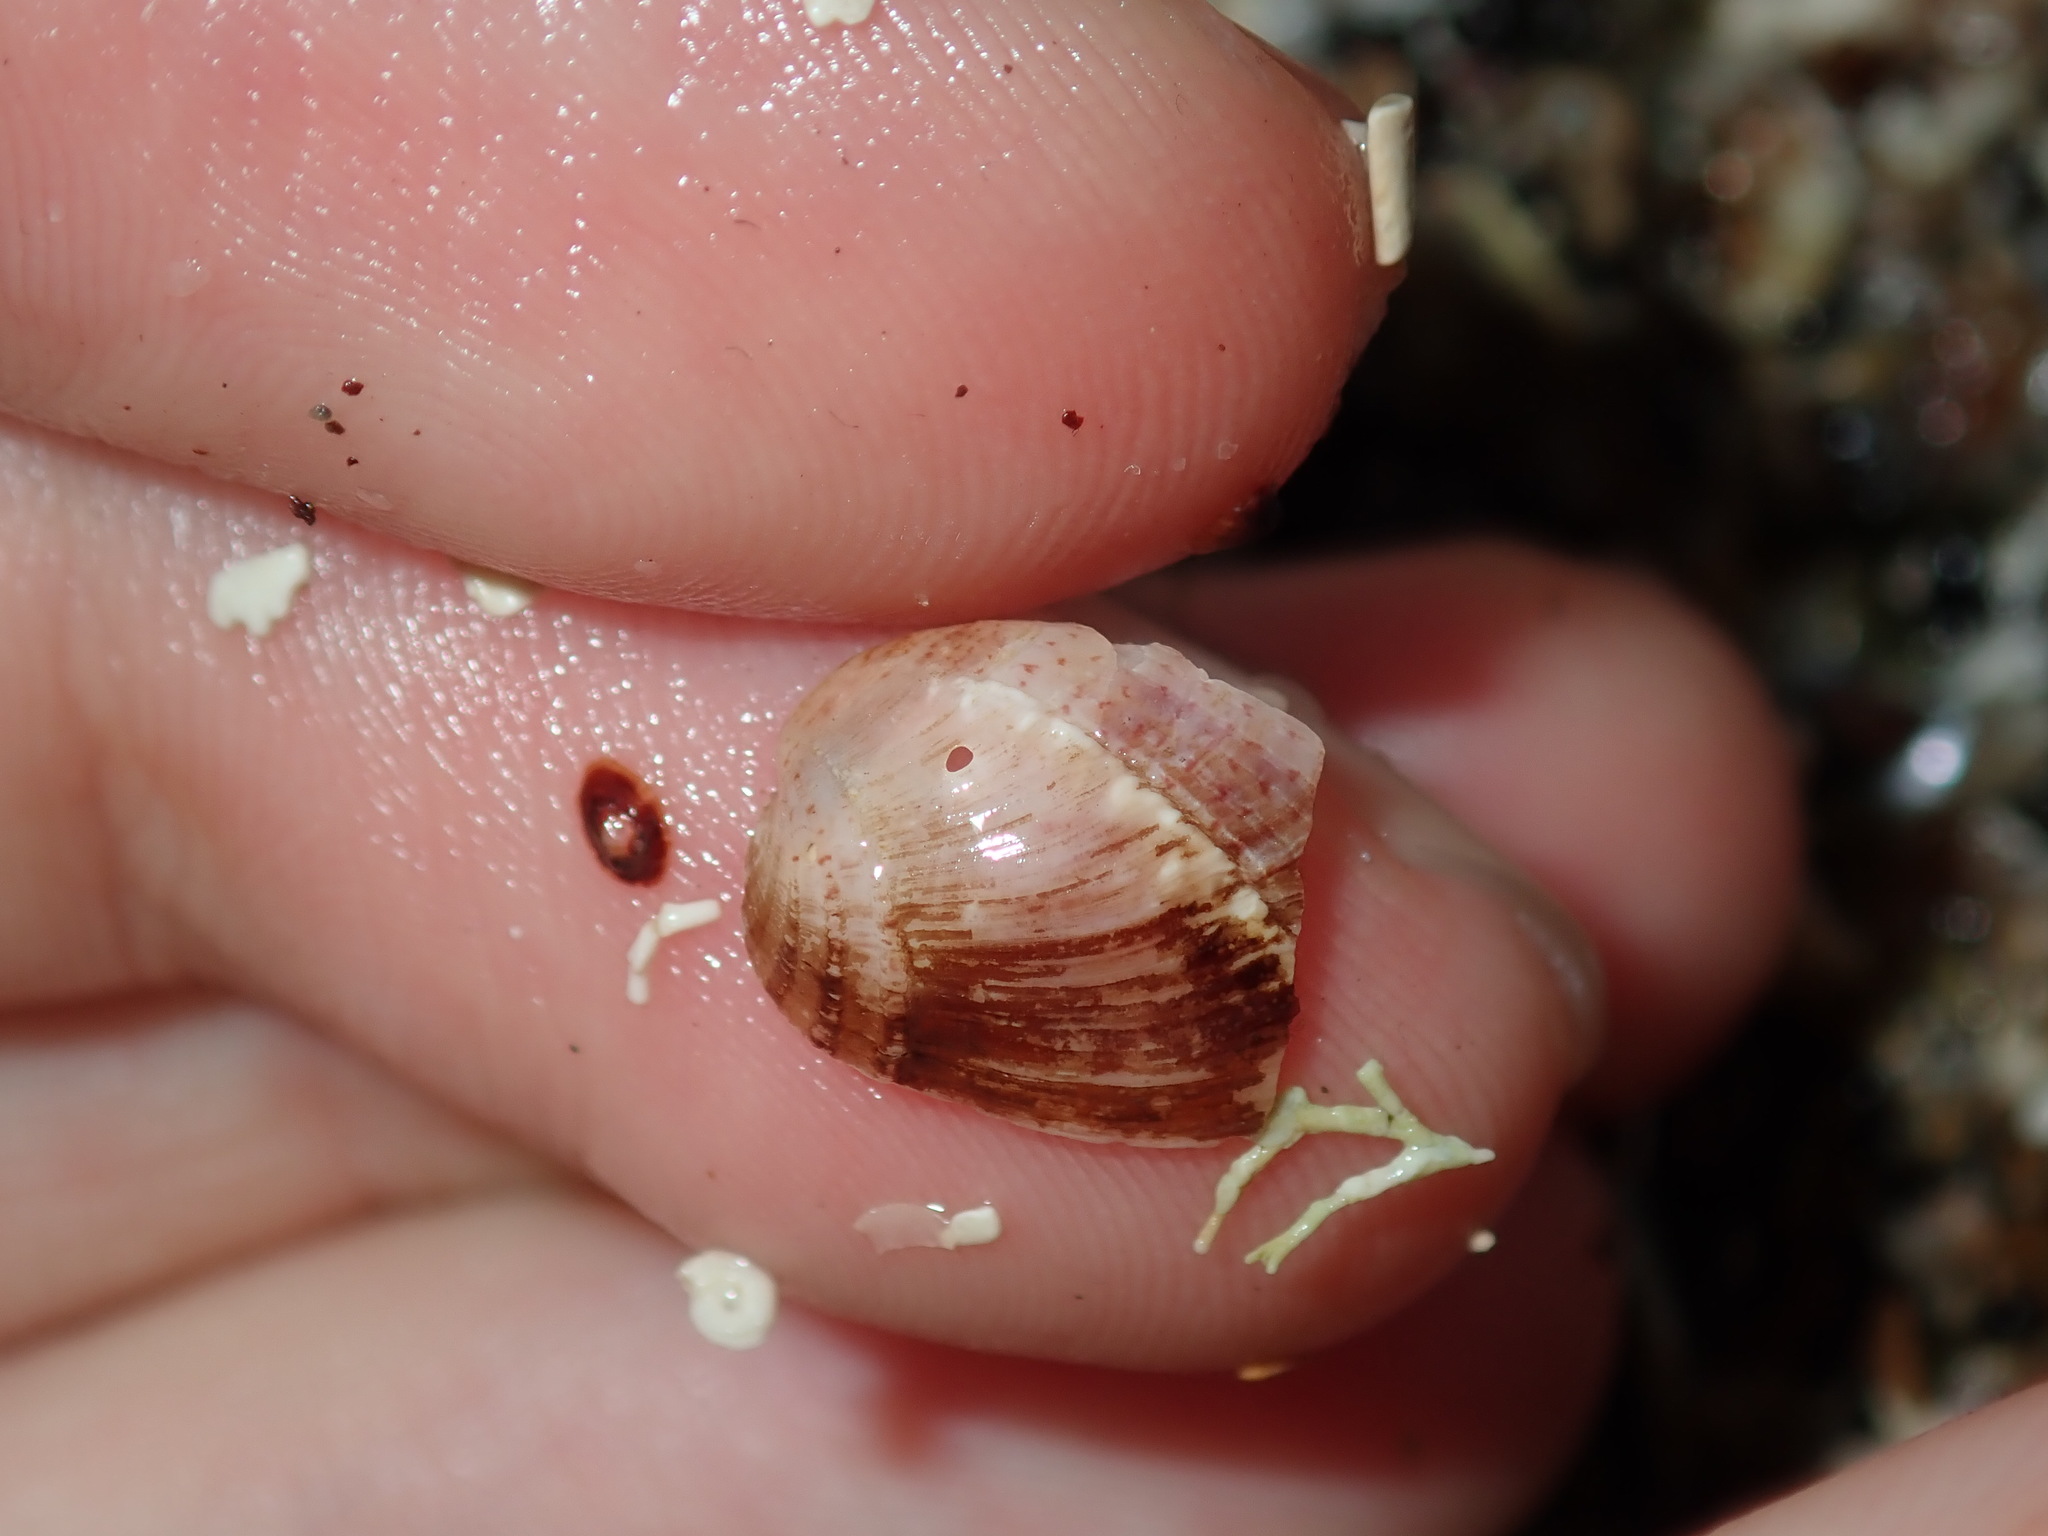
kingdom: Animalia
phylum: Mollusca
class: Bivalvia
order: Mytilida
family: Mytilidae
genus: Musculus
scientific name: Musculus impactus
